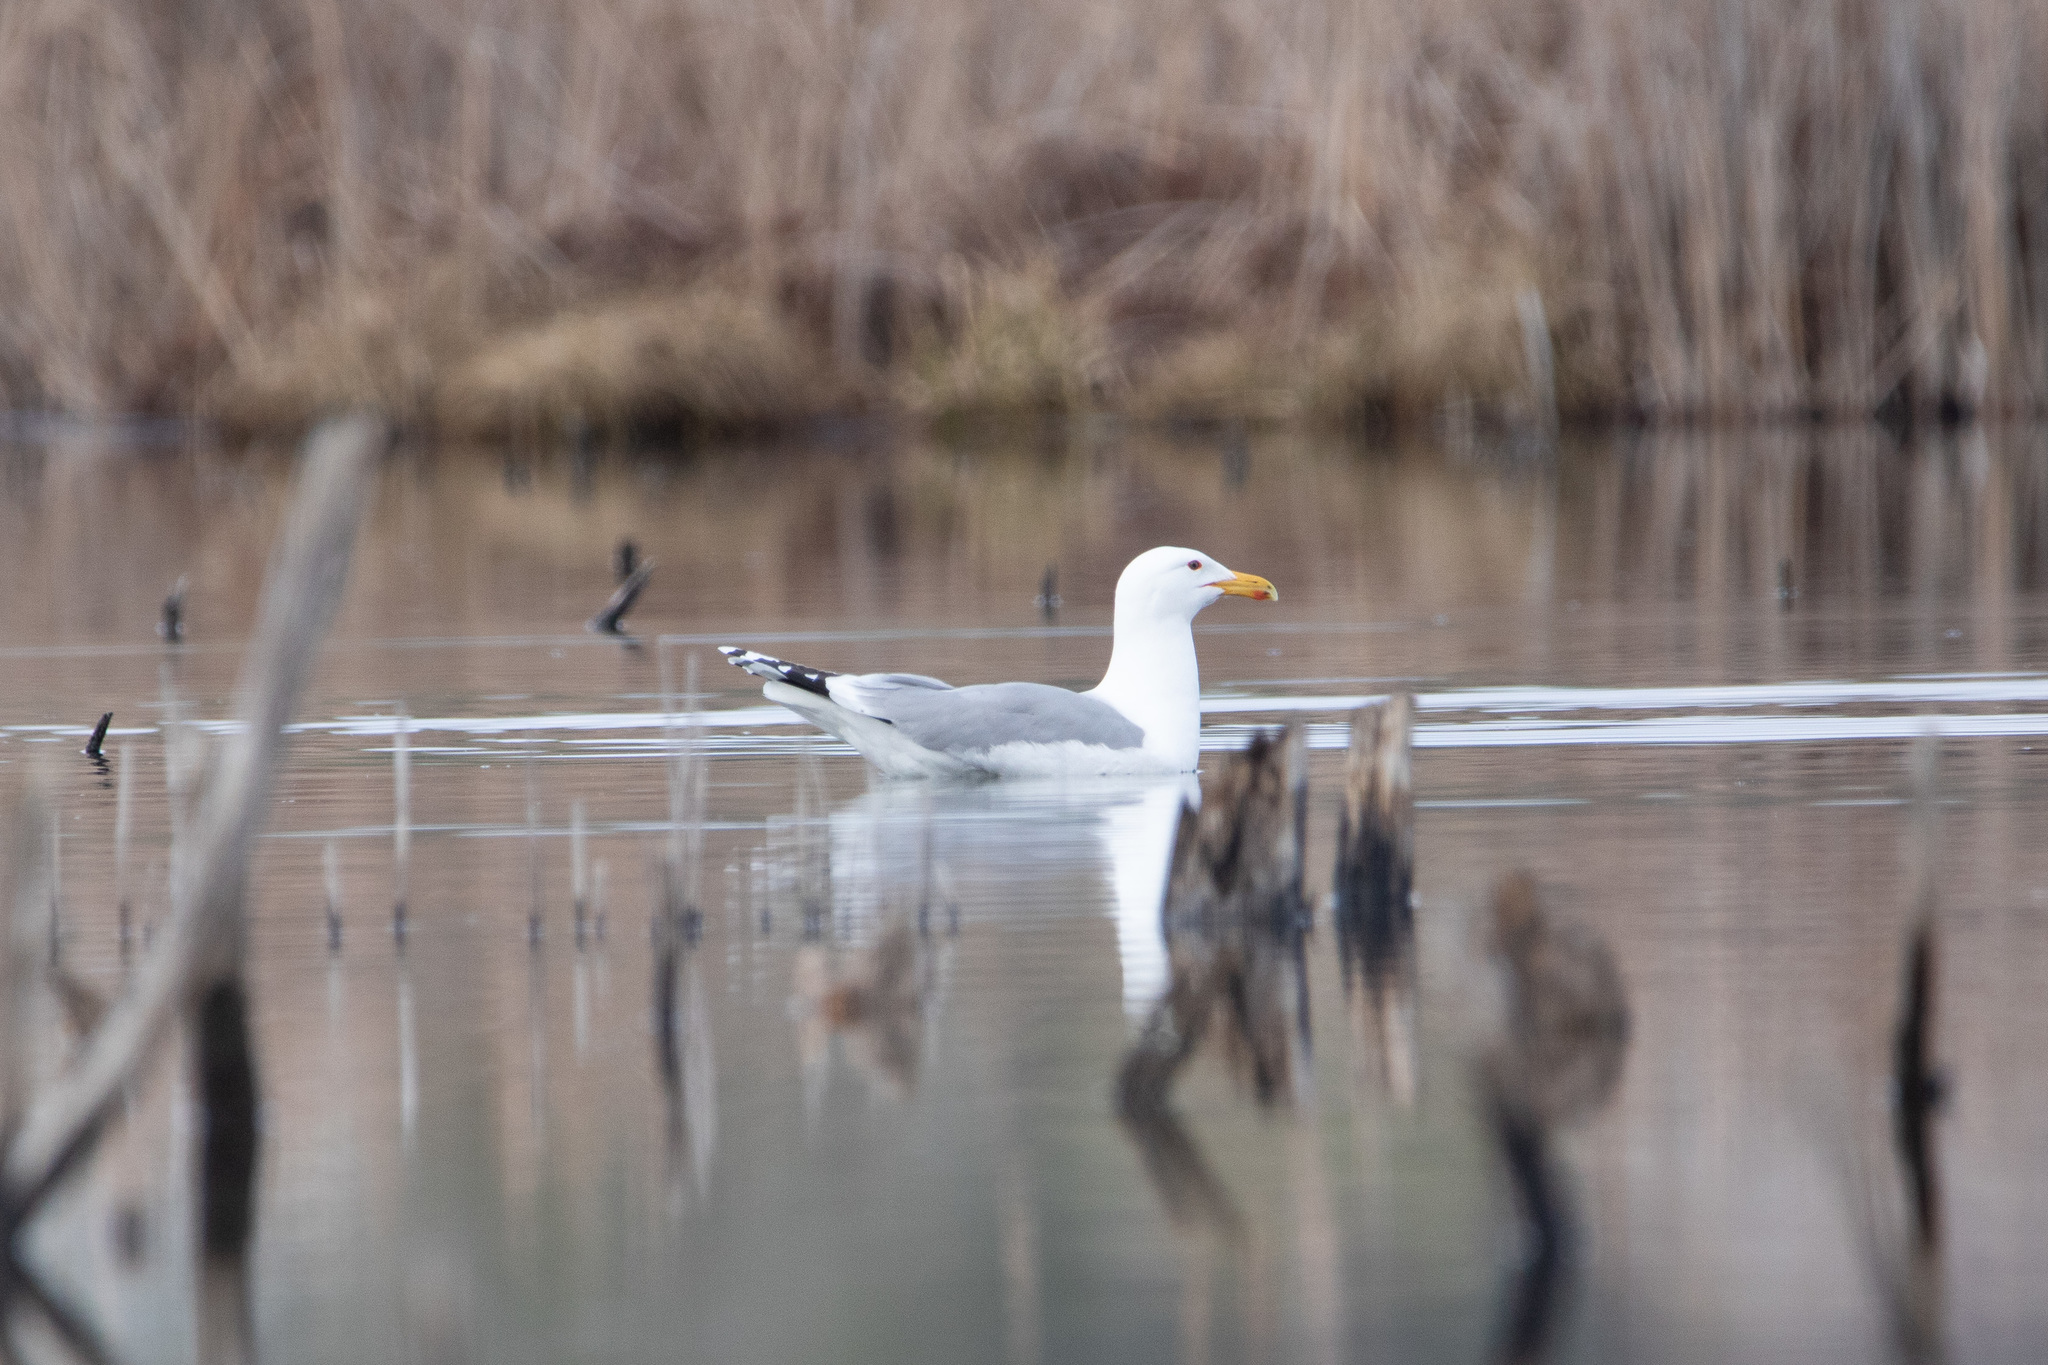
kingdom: Animalia
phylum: Chordata
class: Aves
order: Charadriiformes
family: Laridae
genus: Larus
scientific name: Larus argentatus
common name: Herring gull
